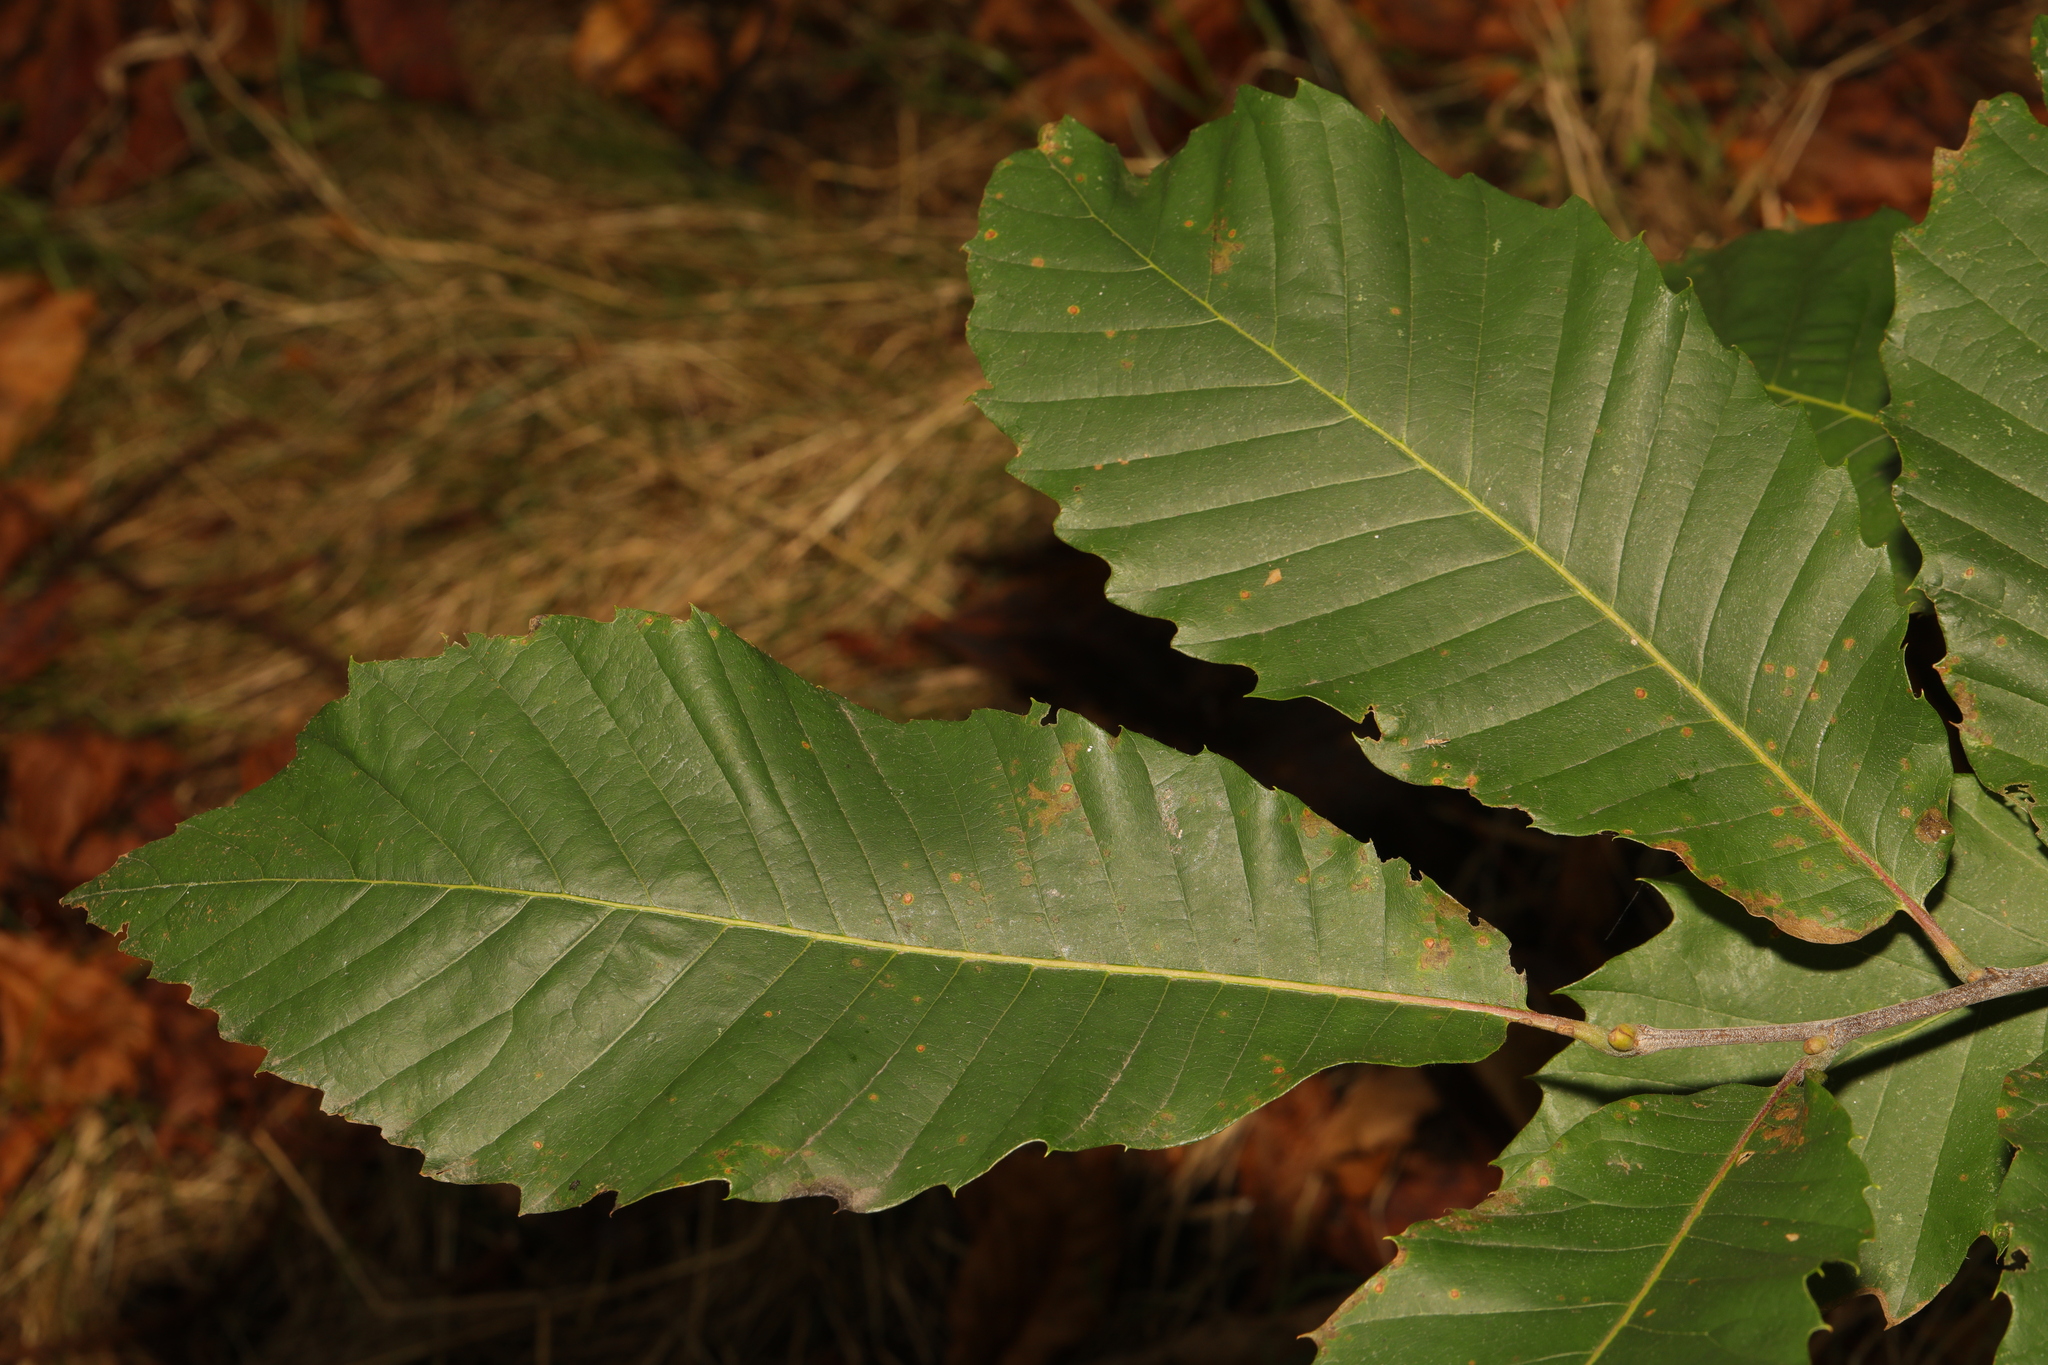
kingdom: Plantae
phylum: Tracheophyta
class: Magnoliopsida
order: Fagales
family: Fagaceae
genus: Castanea
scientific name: Castanea sativa
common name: Sweet chestnut
